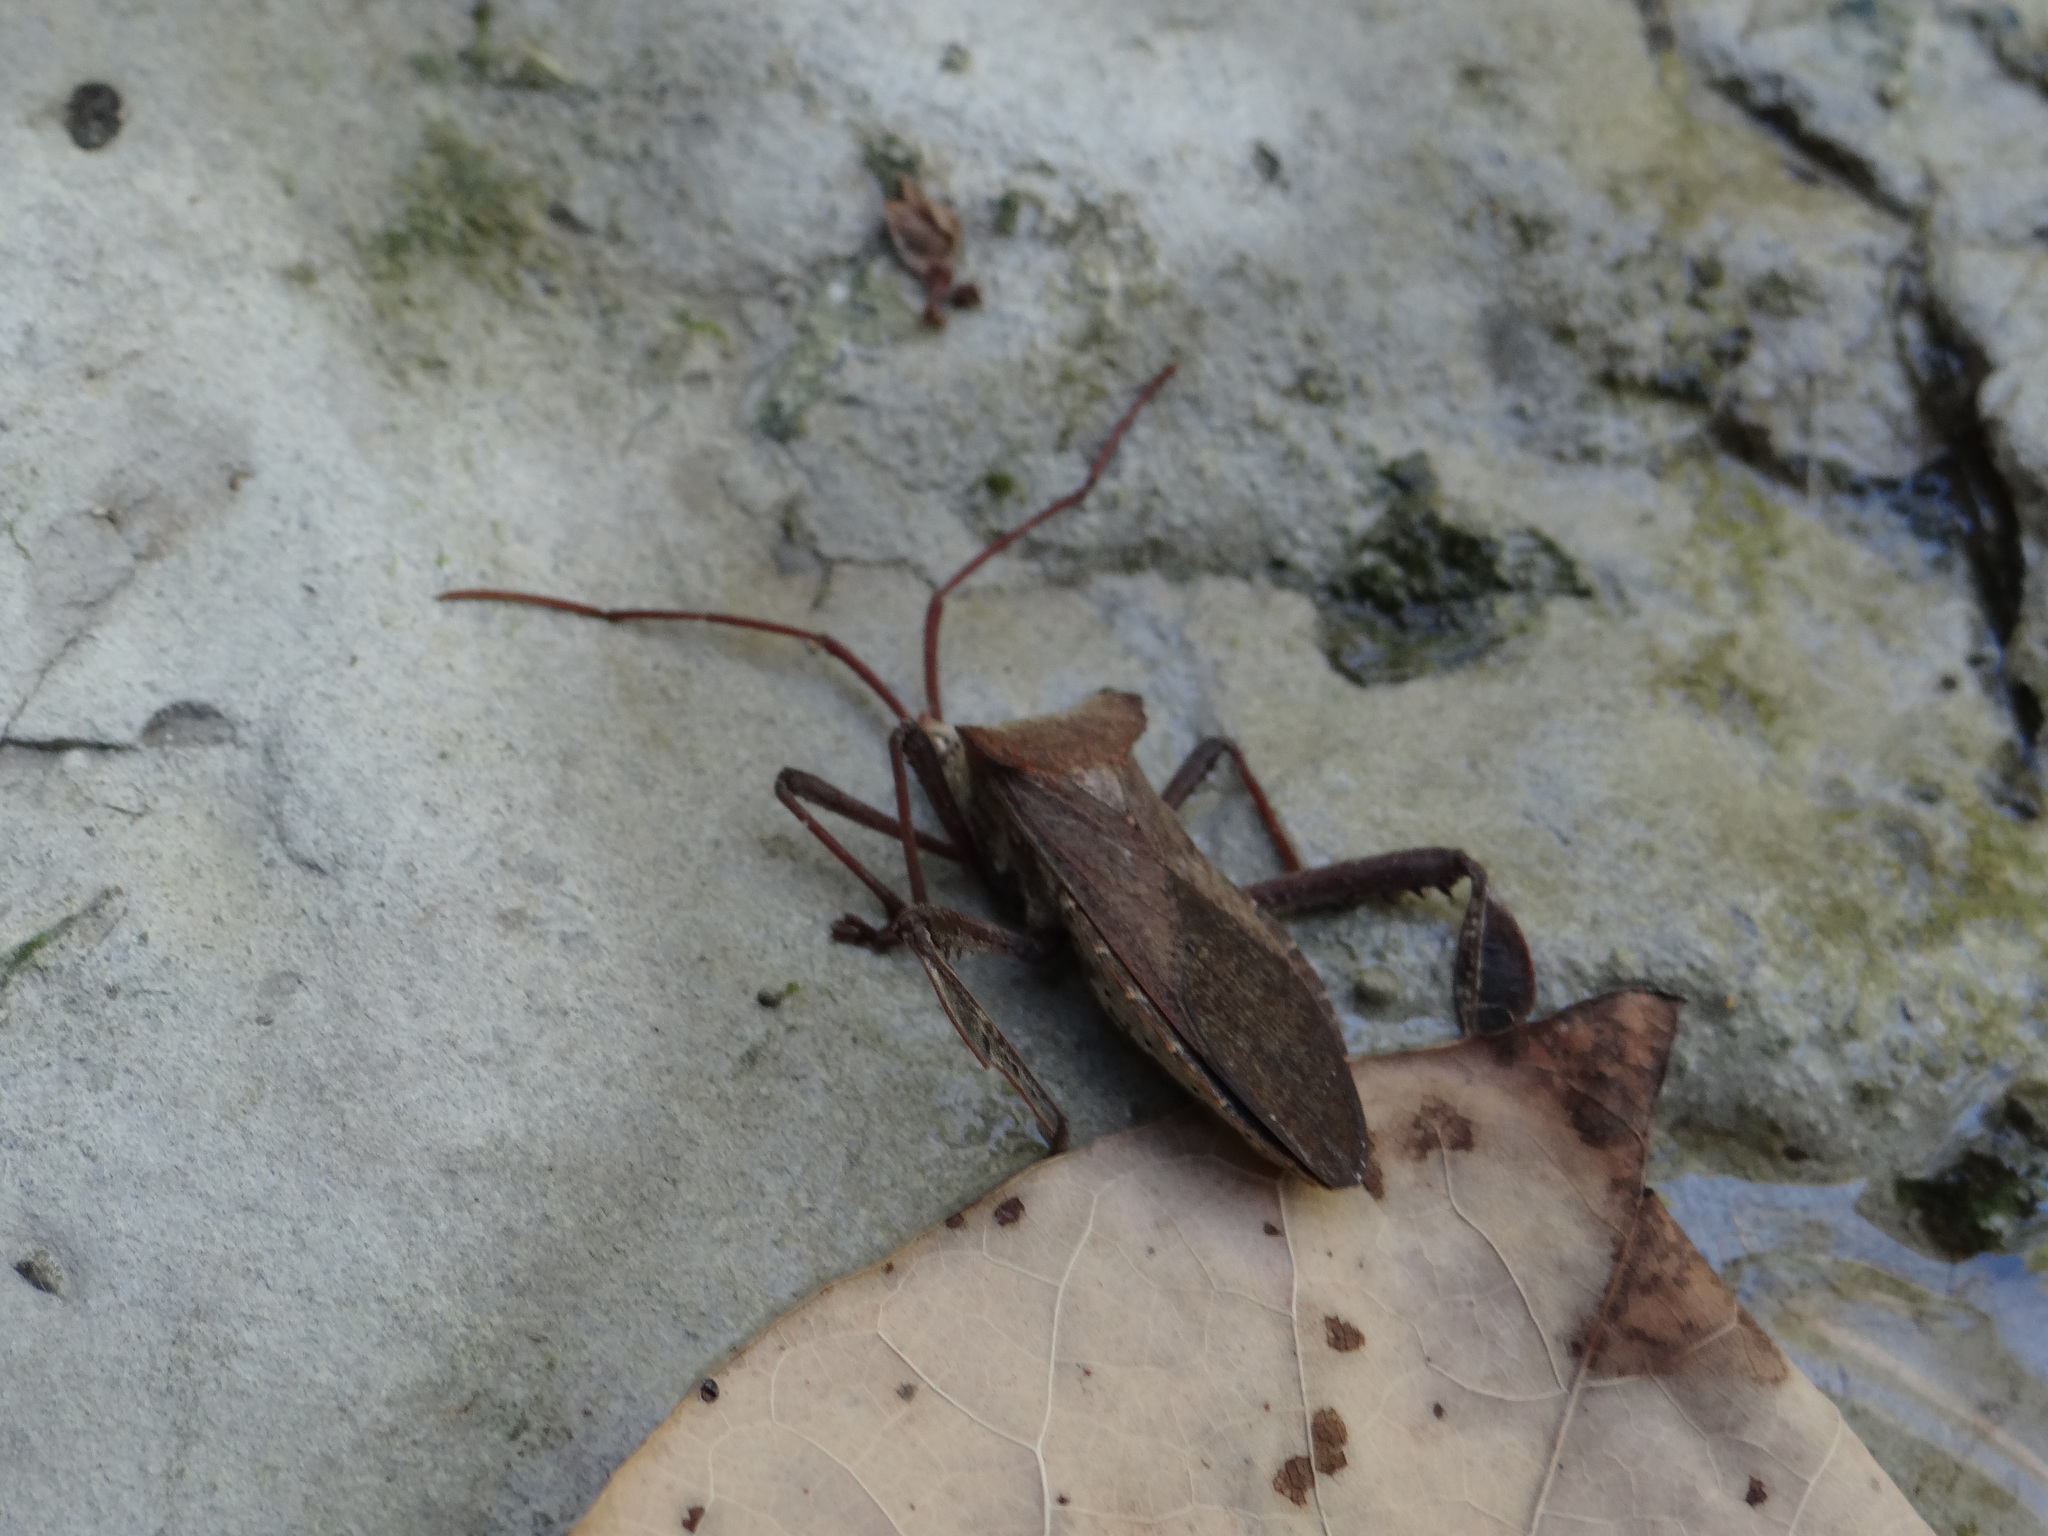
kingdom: Animalia
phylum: Arthropoda
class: Insecta
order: Hemiptera
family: Coreidae
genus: Acanthocephala
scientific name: Acanthocephala declivis
